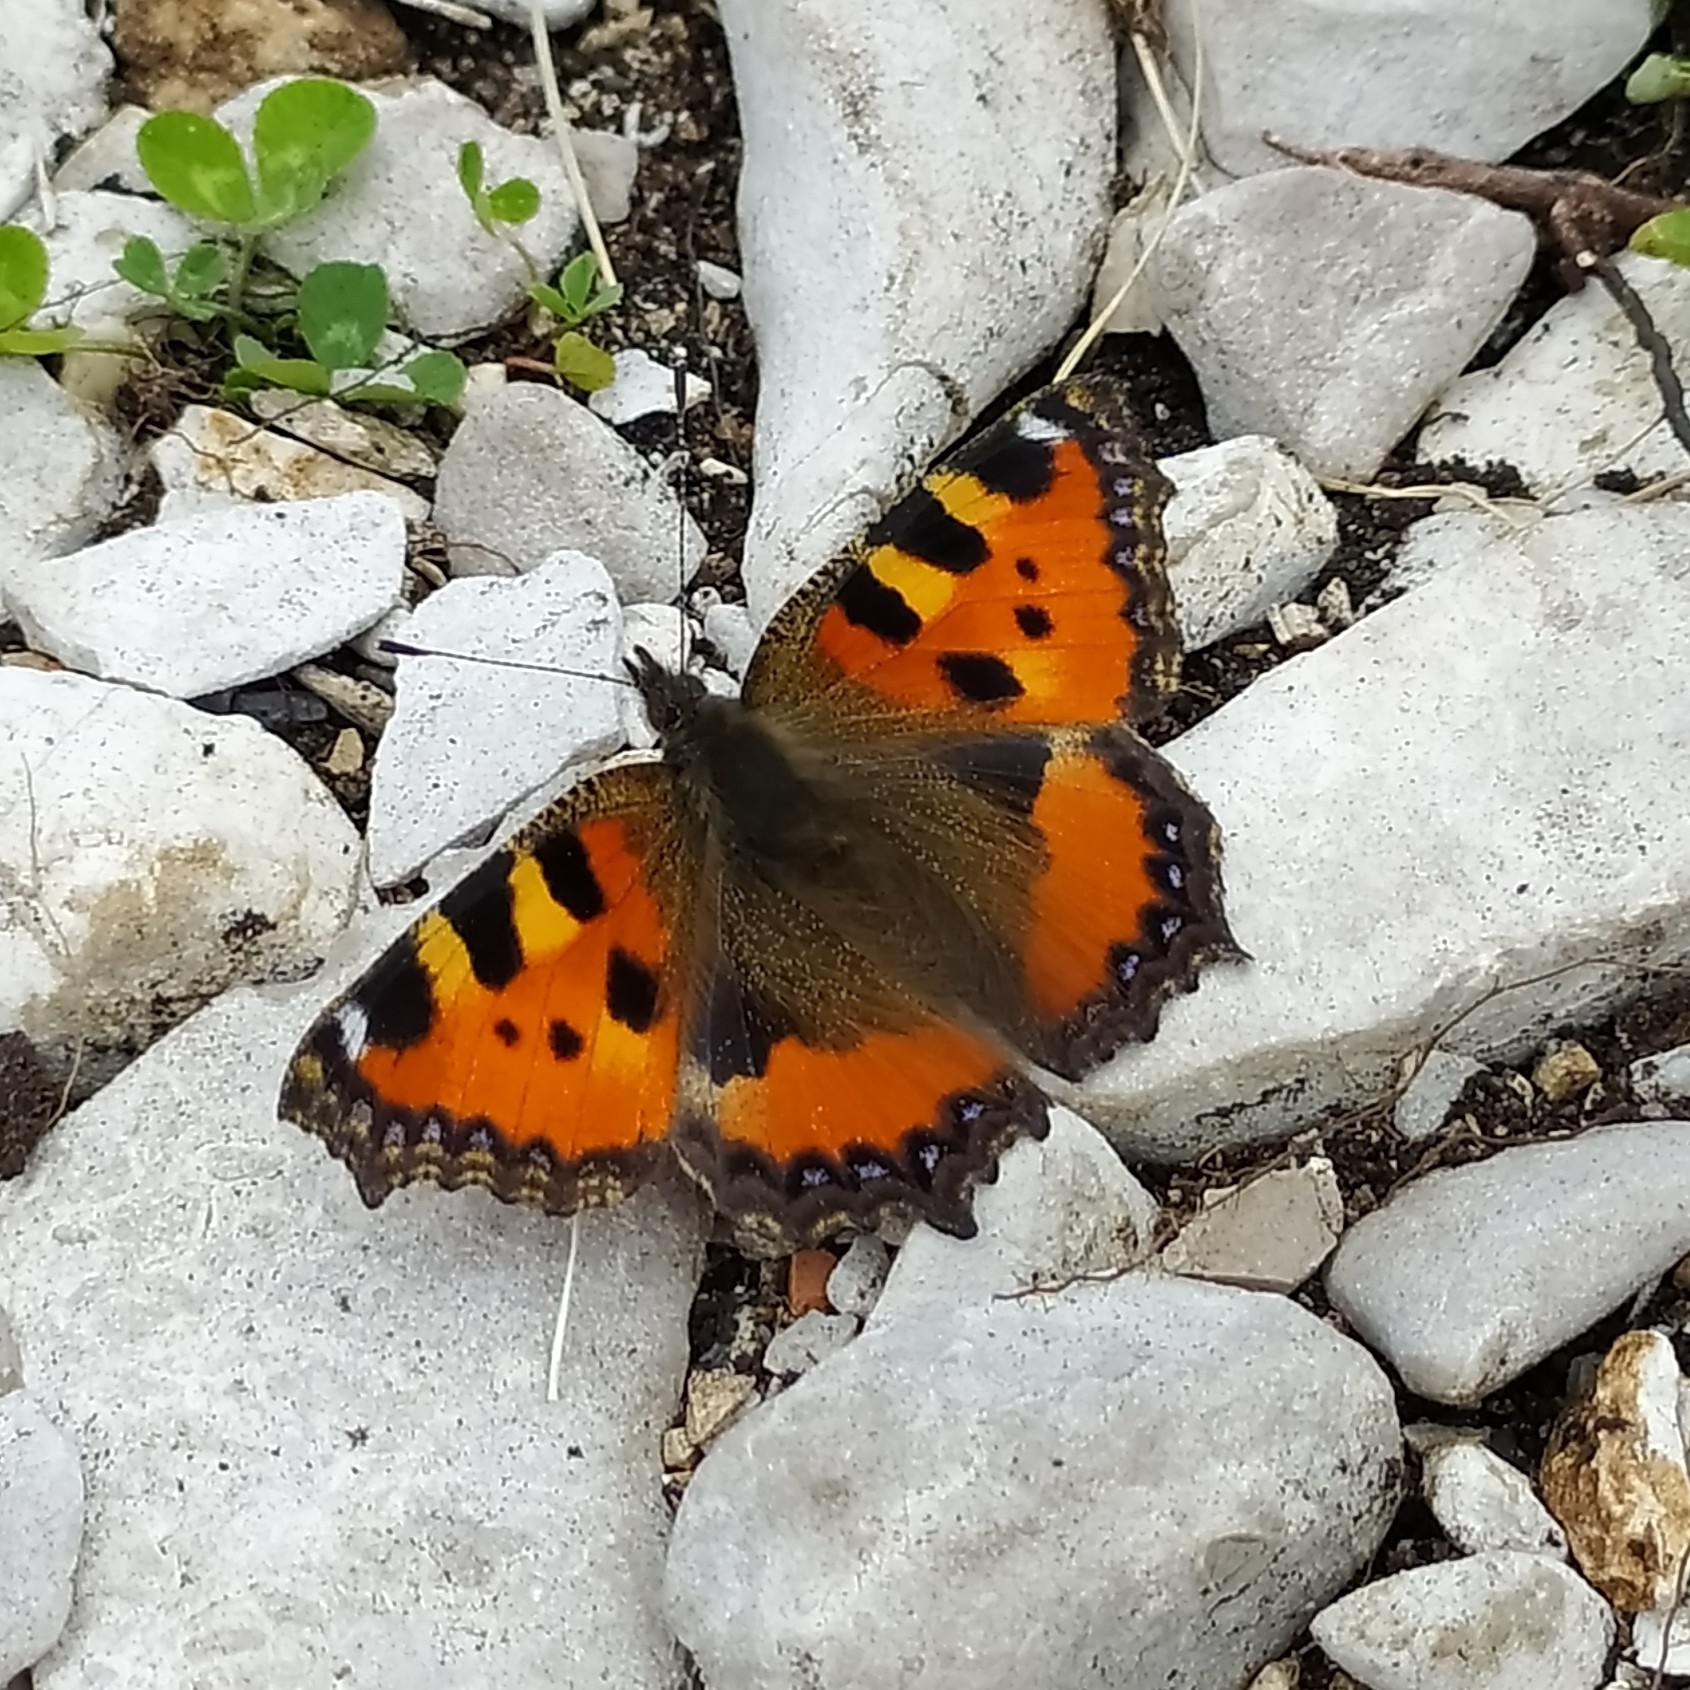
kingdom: Animalia
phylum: Arthropoda
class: Insecta
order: Lepidoptera
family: Nymphalidae
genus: Aglais
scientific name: Aglais urticae
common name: Small tortoiseshell
